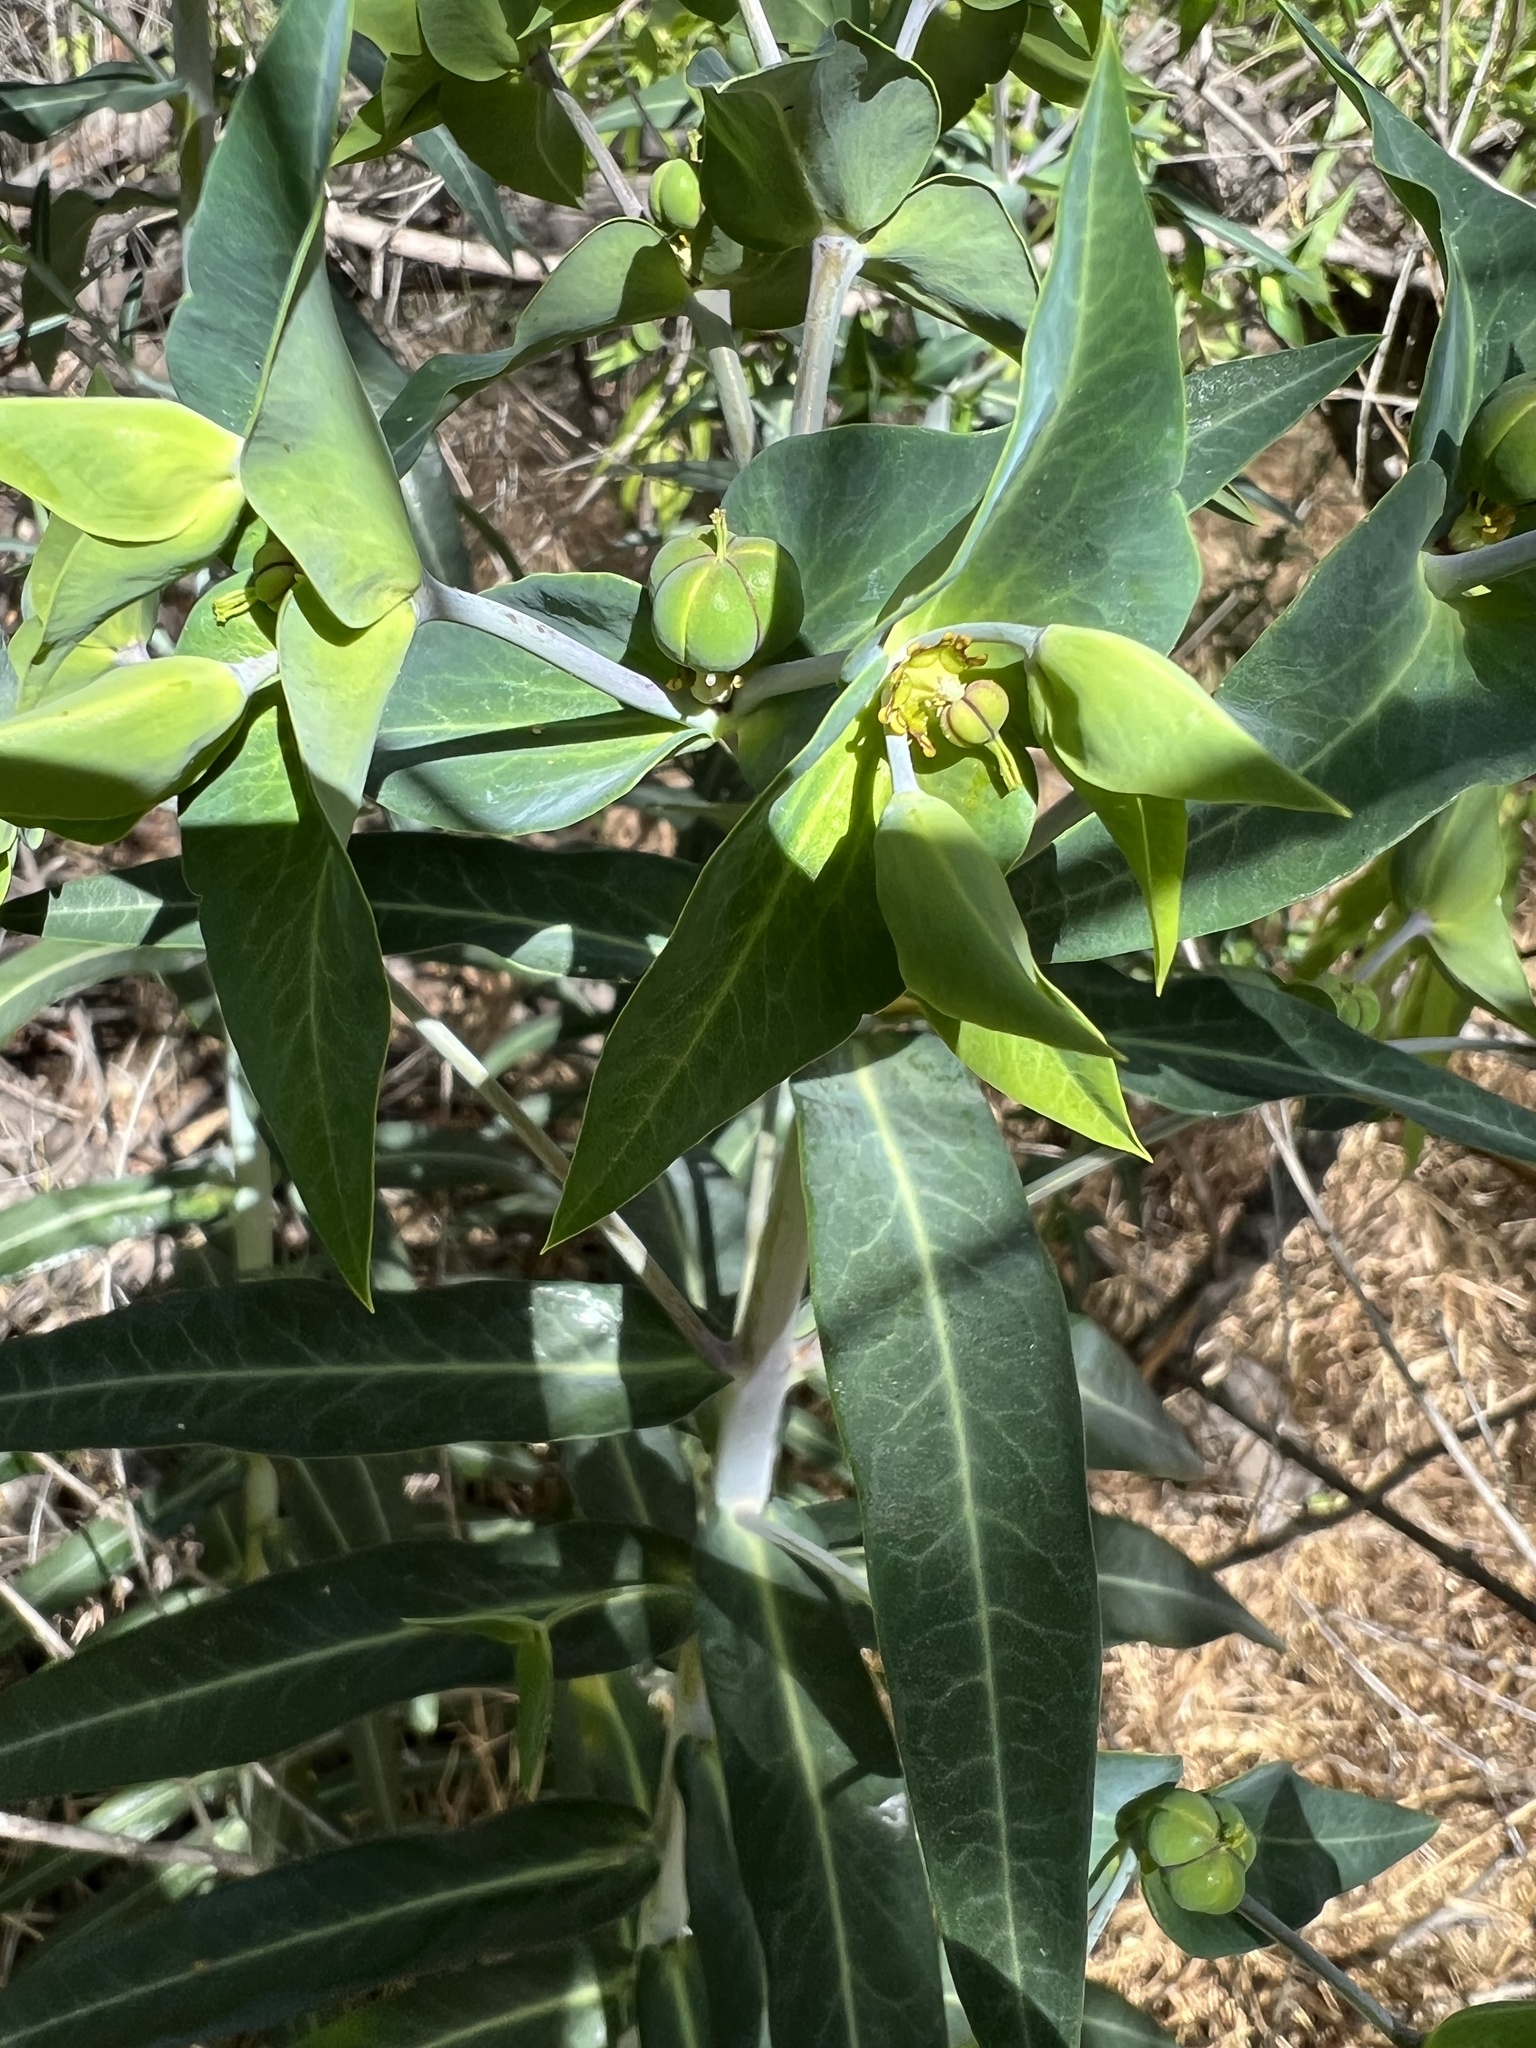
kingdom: Plantae
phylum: Tracheophyta
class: Magnoliopsida
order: Malpighiales
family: Euphorbiaceae
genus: Euphorbia
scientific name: Euphorbia lathyris
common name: Caper spurge
